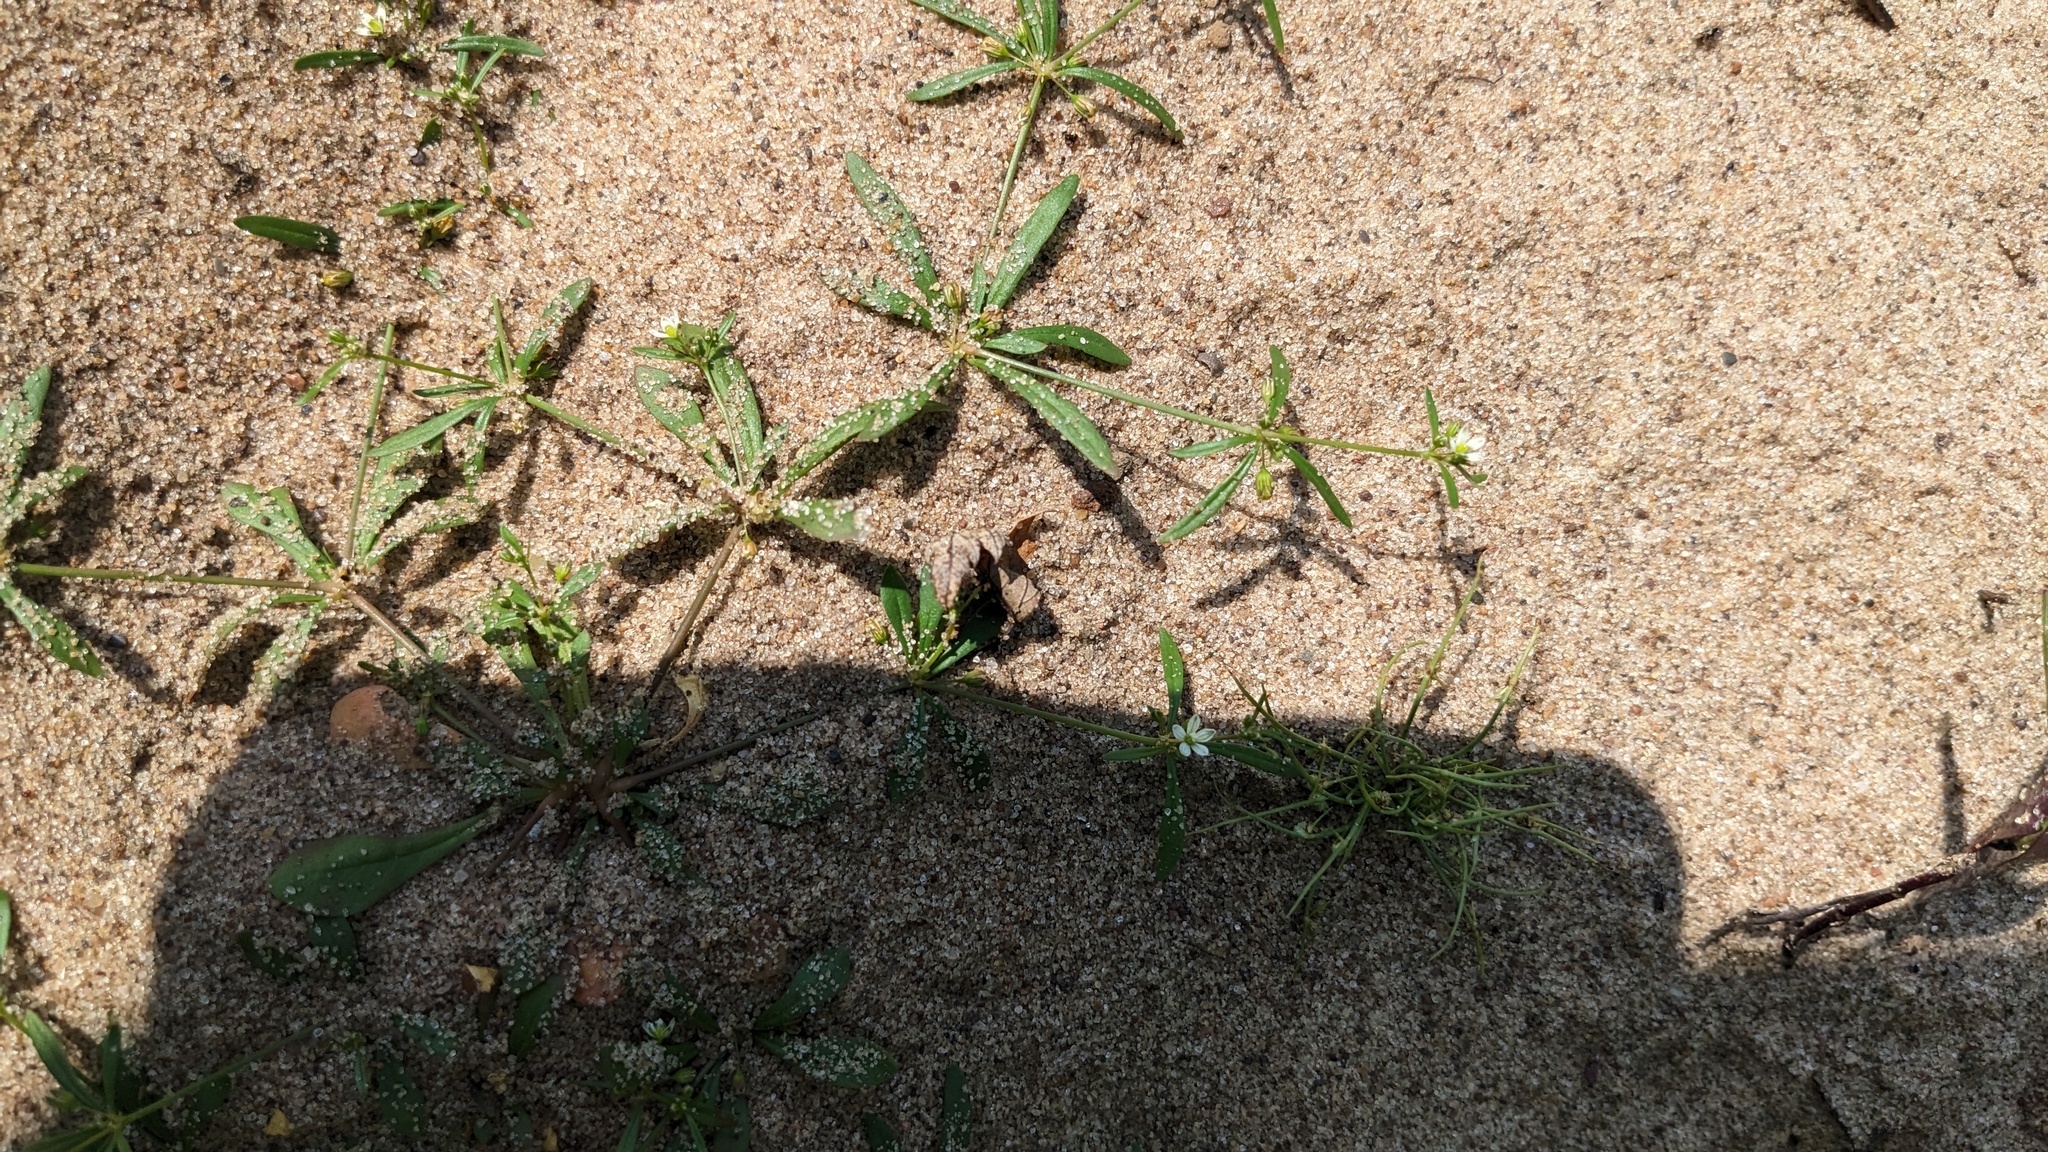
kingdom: Plantae
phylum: Tracheophyta
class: Magnoliopsida
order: Caryophyllales
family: Molluginaceae
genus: Mollugo
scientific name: Mollugo verticillata
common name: Green carpetweed
